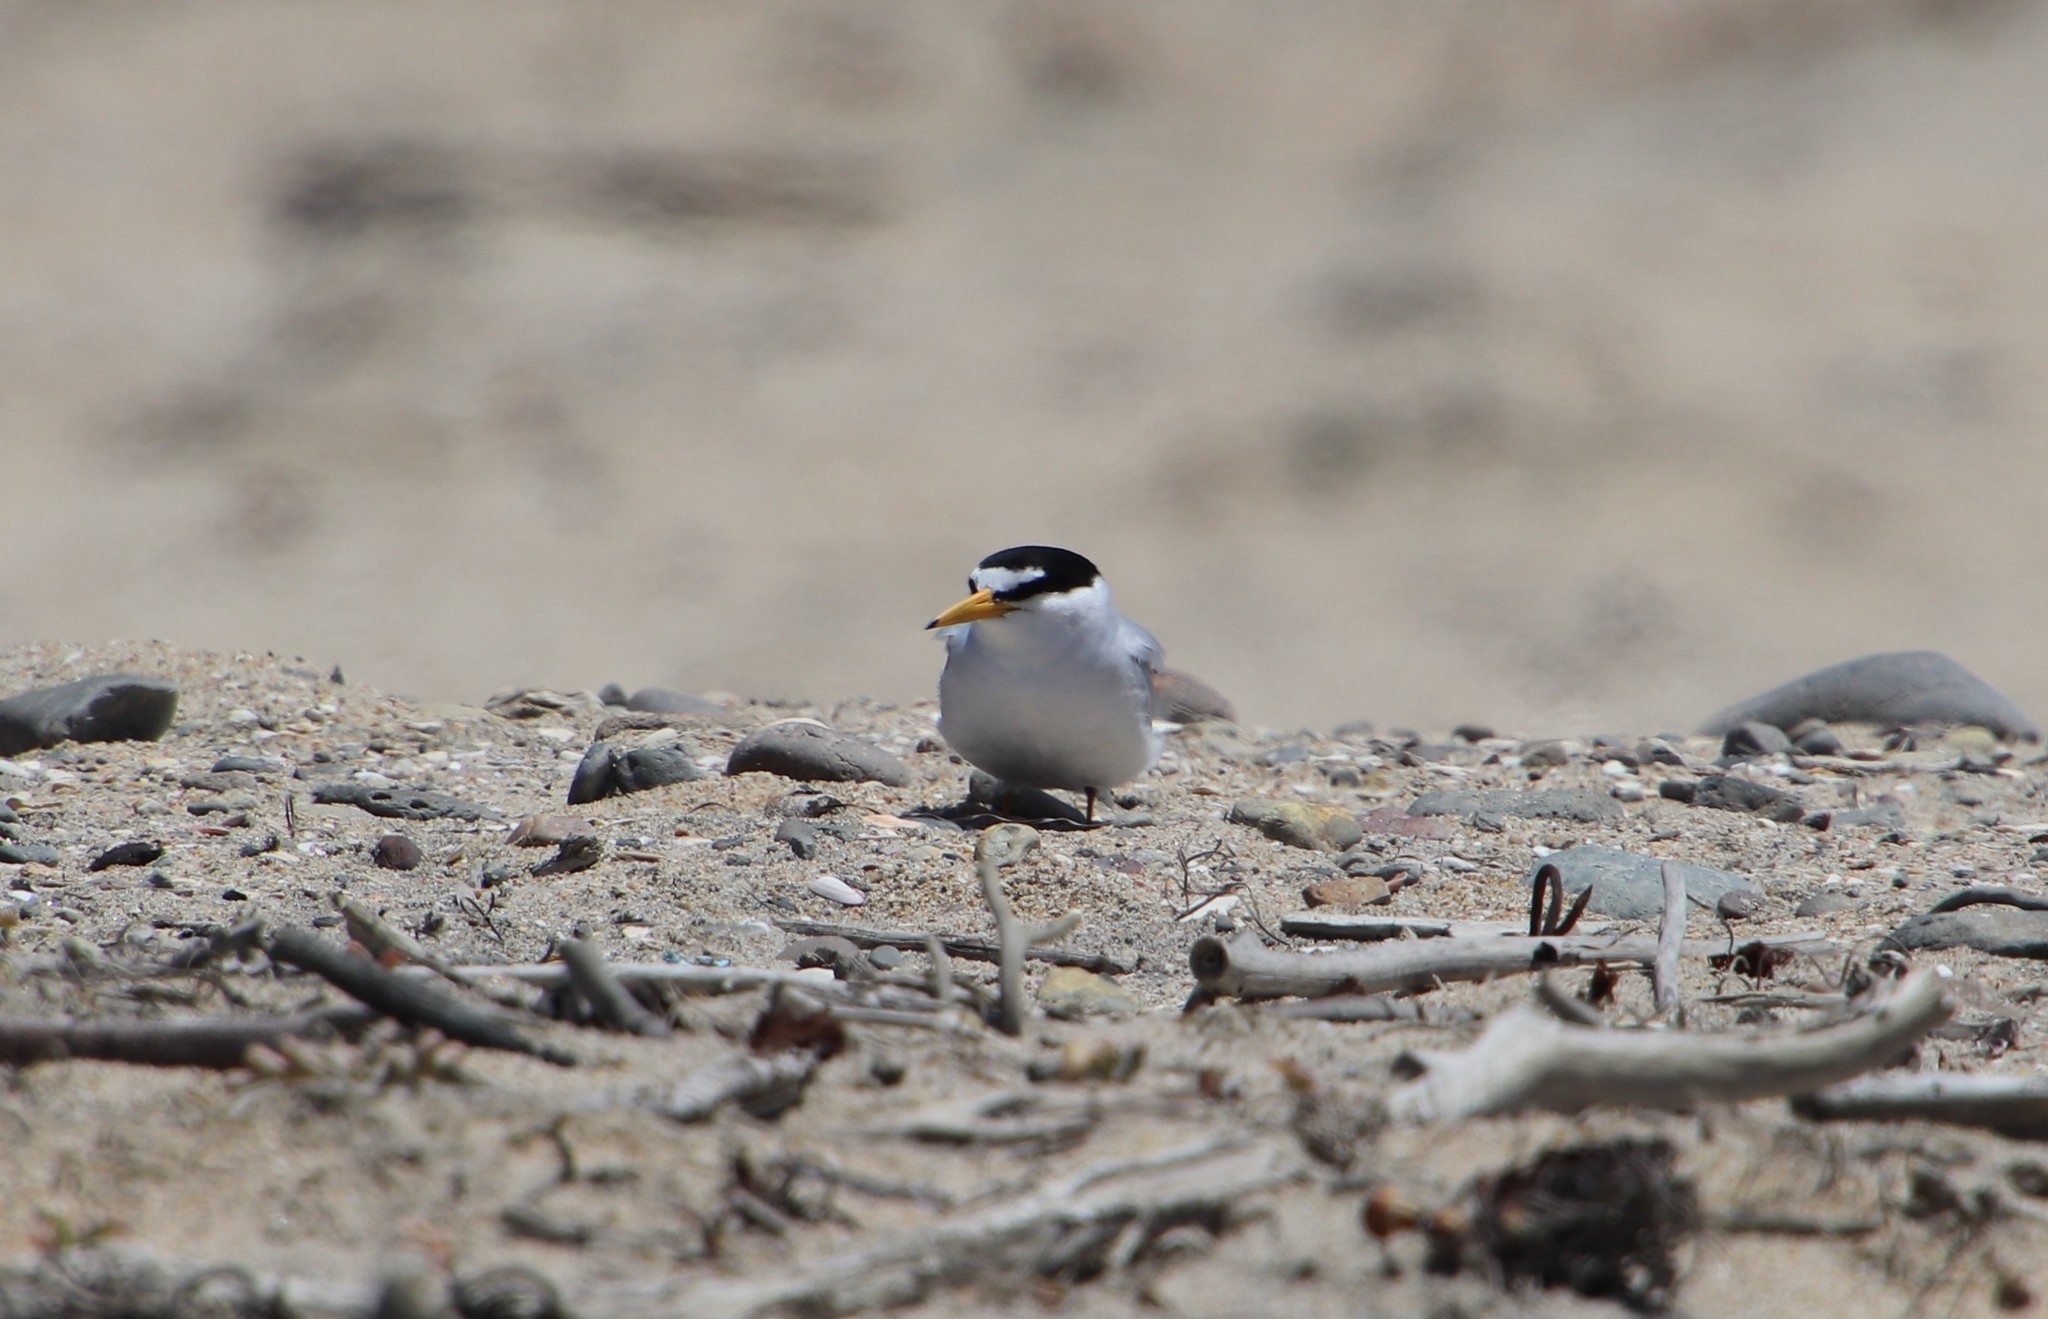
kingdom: Animalia
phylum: Chordata
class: Aves
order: Charadriiformes
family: Laridae
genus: Sternula
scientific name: Sternula antillarum
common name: Least tern
